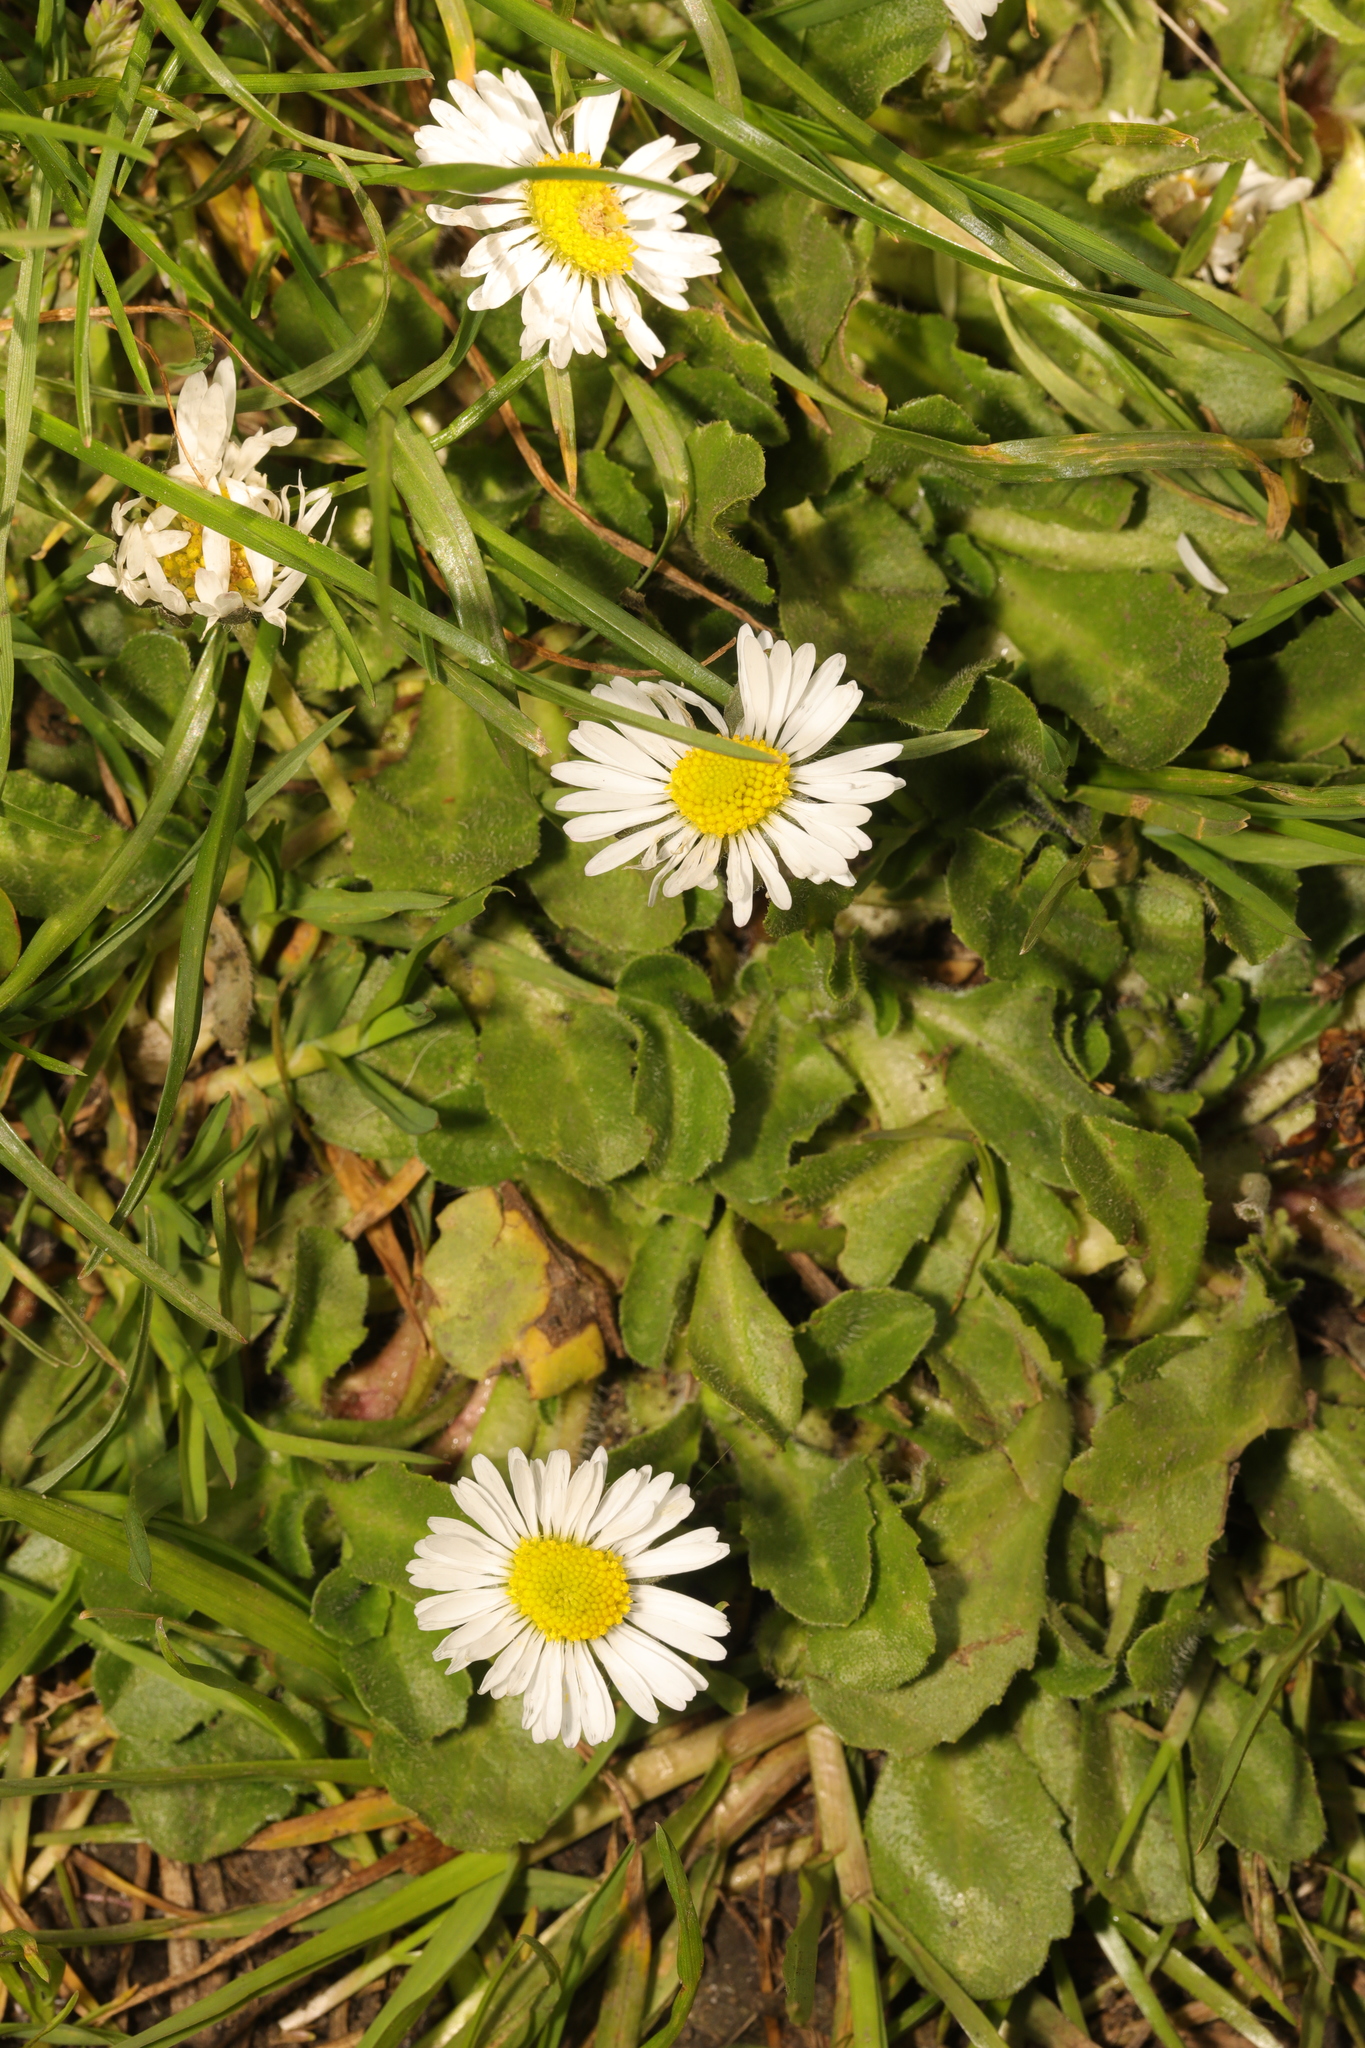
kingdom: Plantae
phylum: Tracheophyta
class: Magnoliopsida
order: Asterales
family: Asteraceae
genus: Bellis
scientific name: Bellis perennis
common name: Lawndaisy
